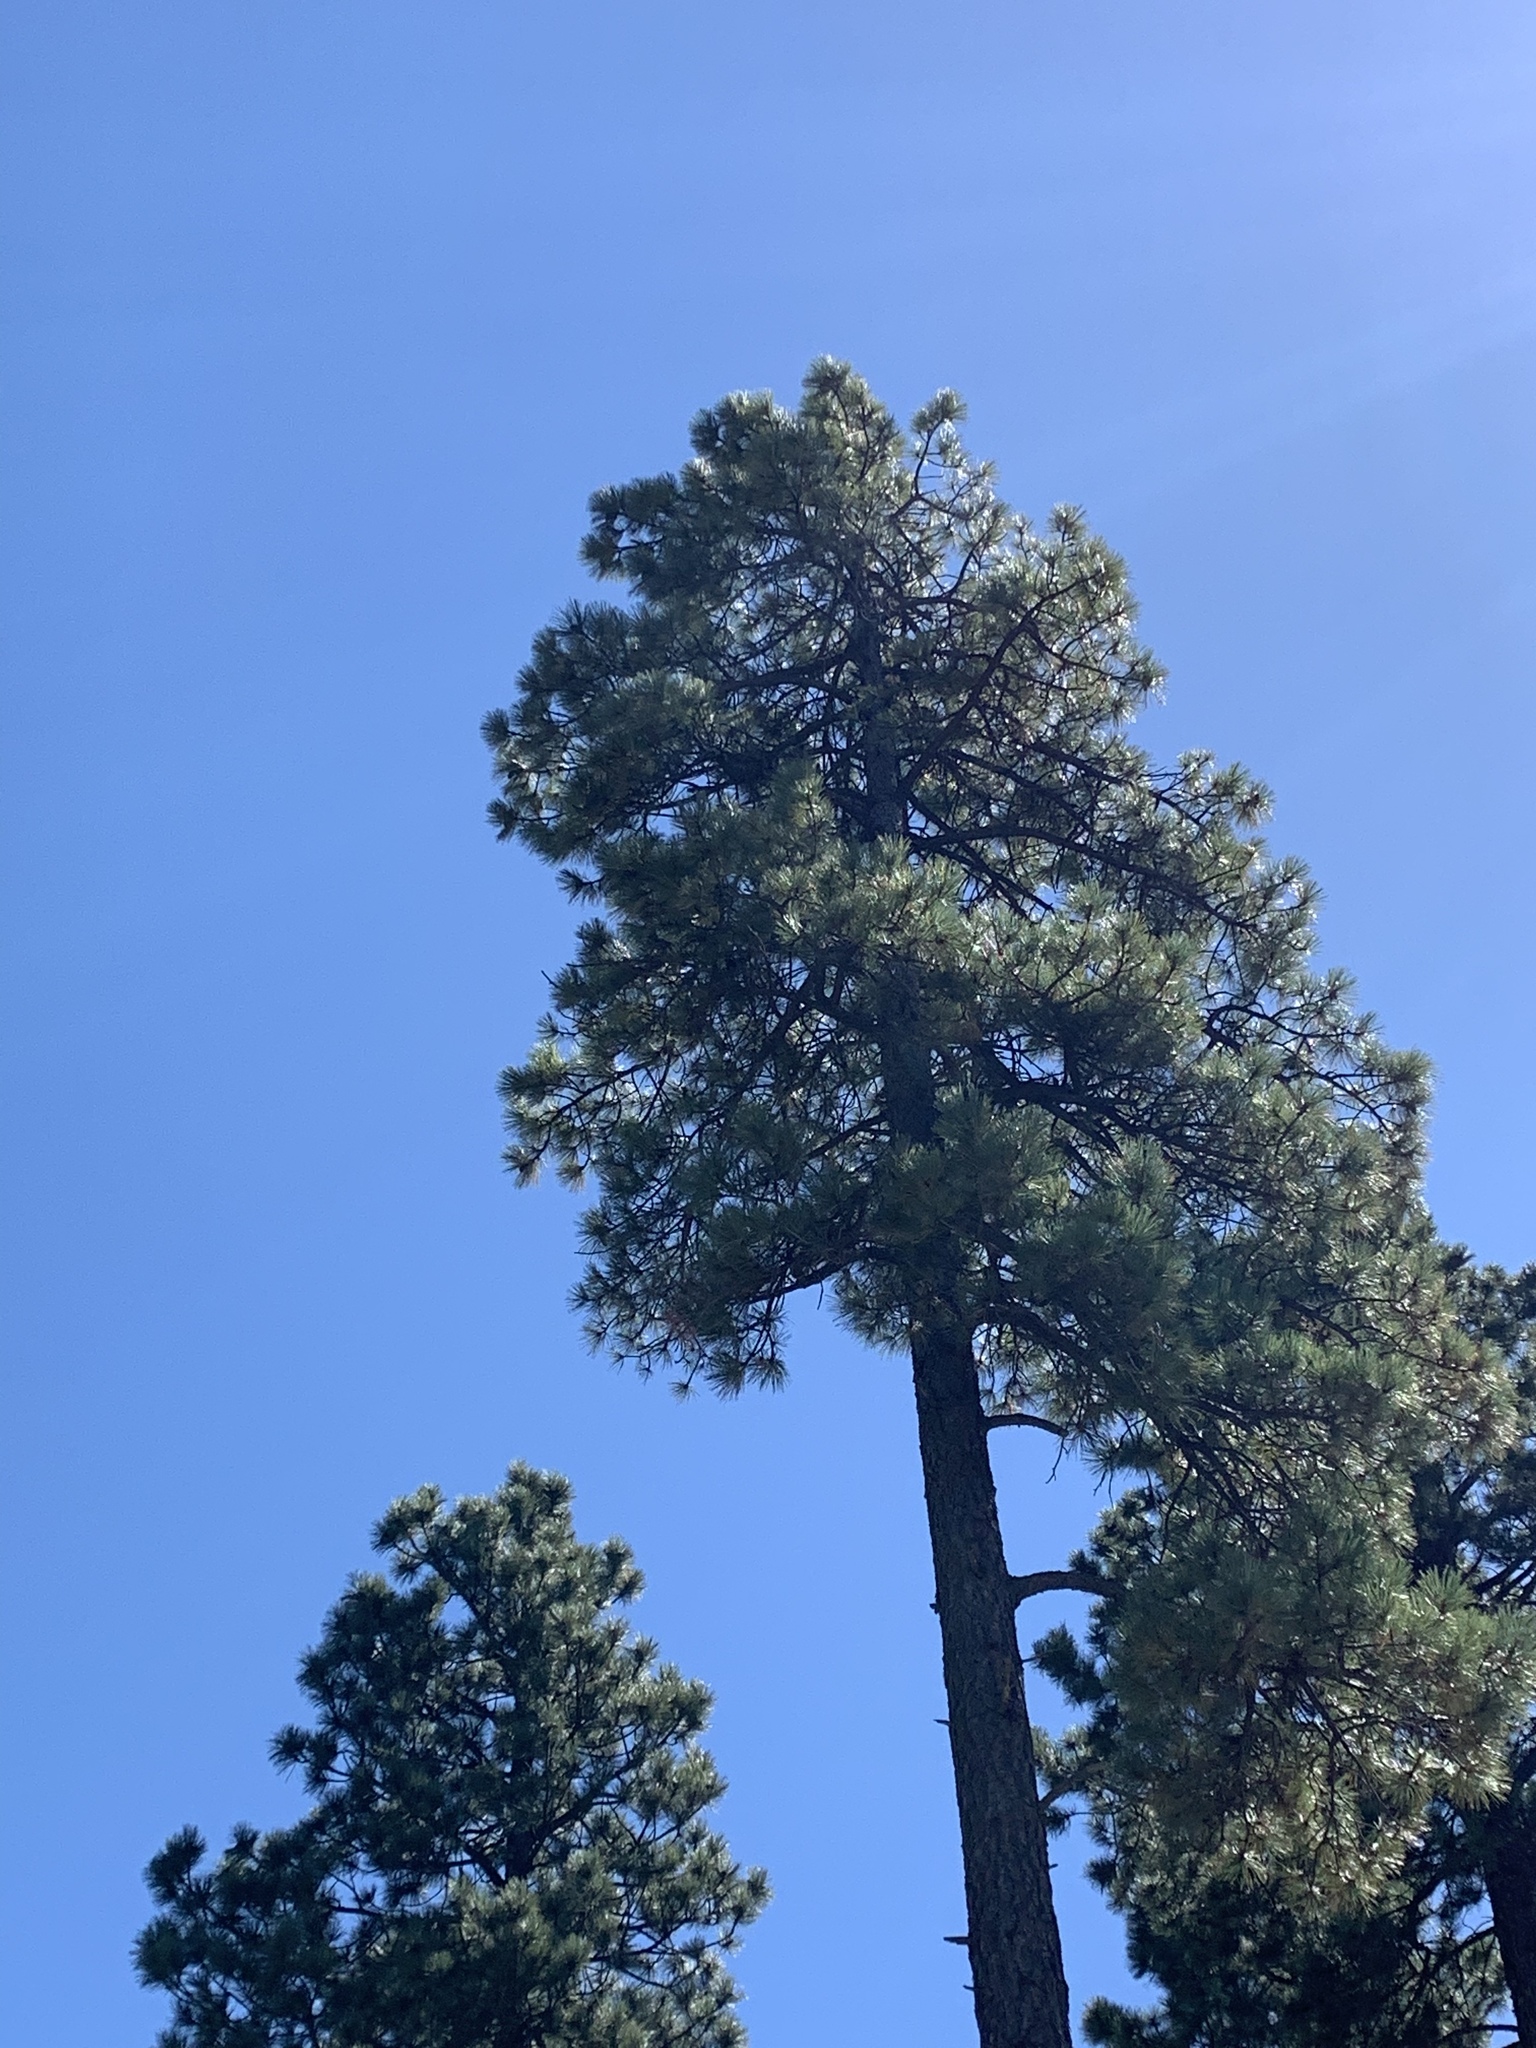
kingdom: Plantae
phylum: Tracheophyta
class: Pinopsida
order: Pinales
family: Pinaceae
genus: Pinus
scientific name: Pinus ponderosa
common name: Western yellow-pine
